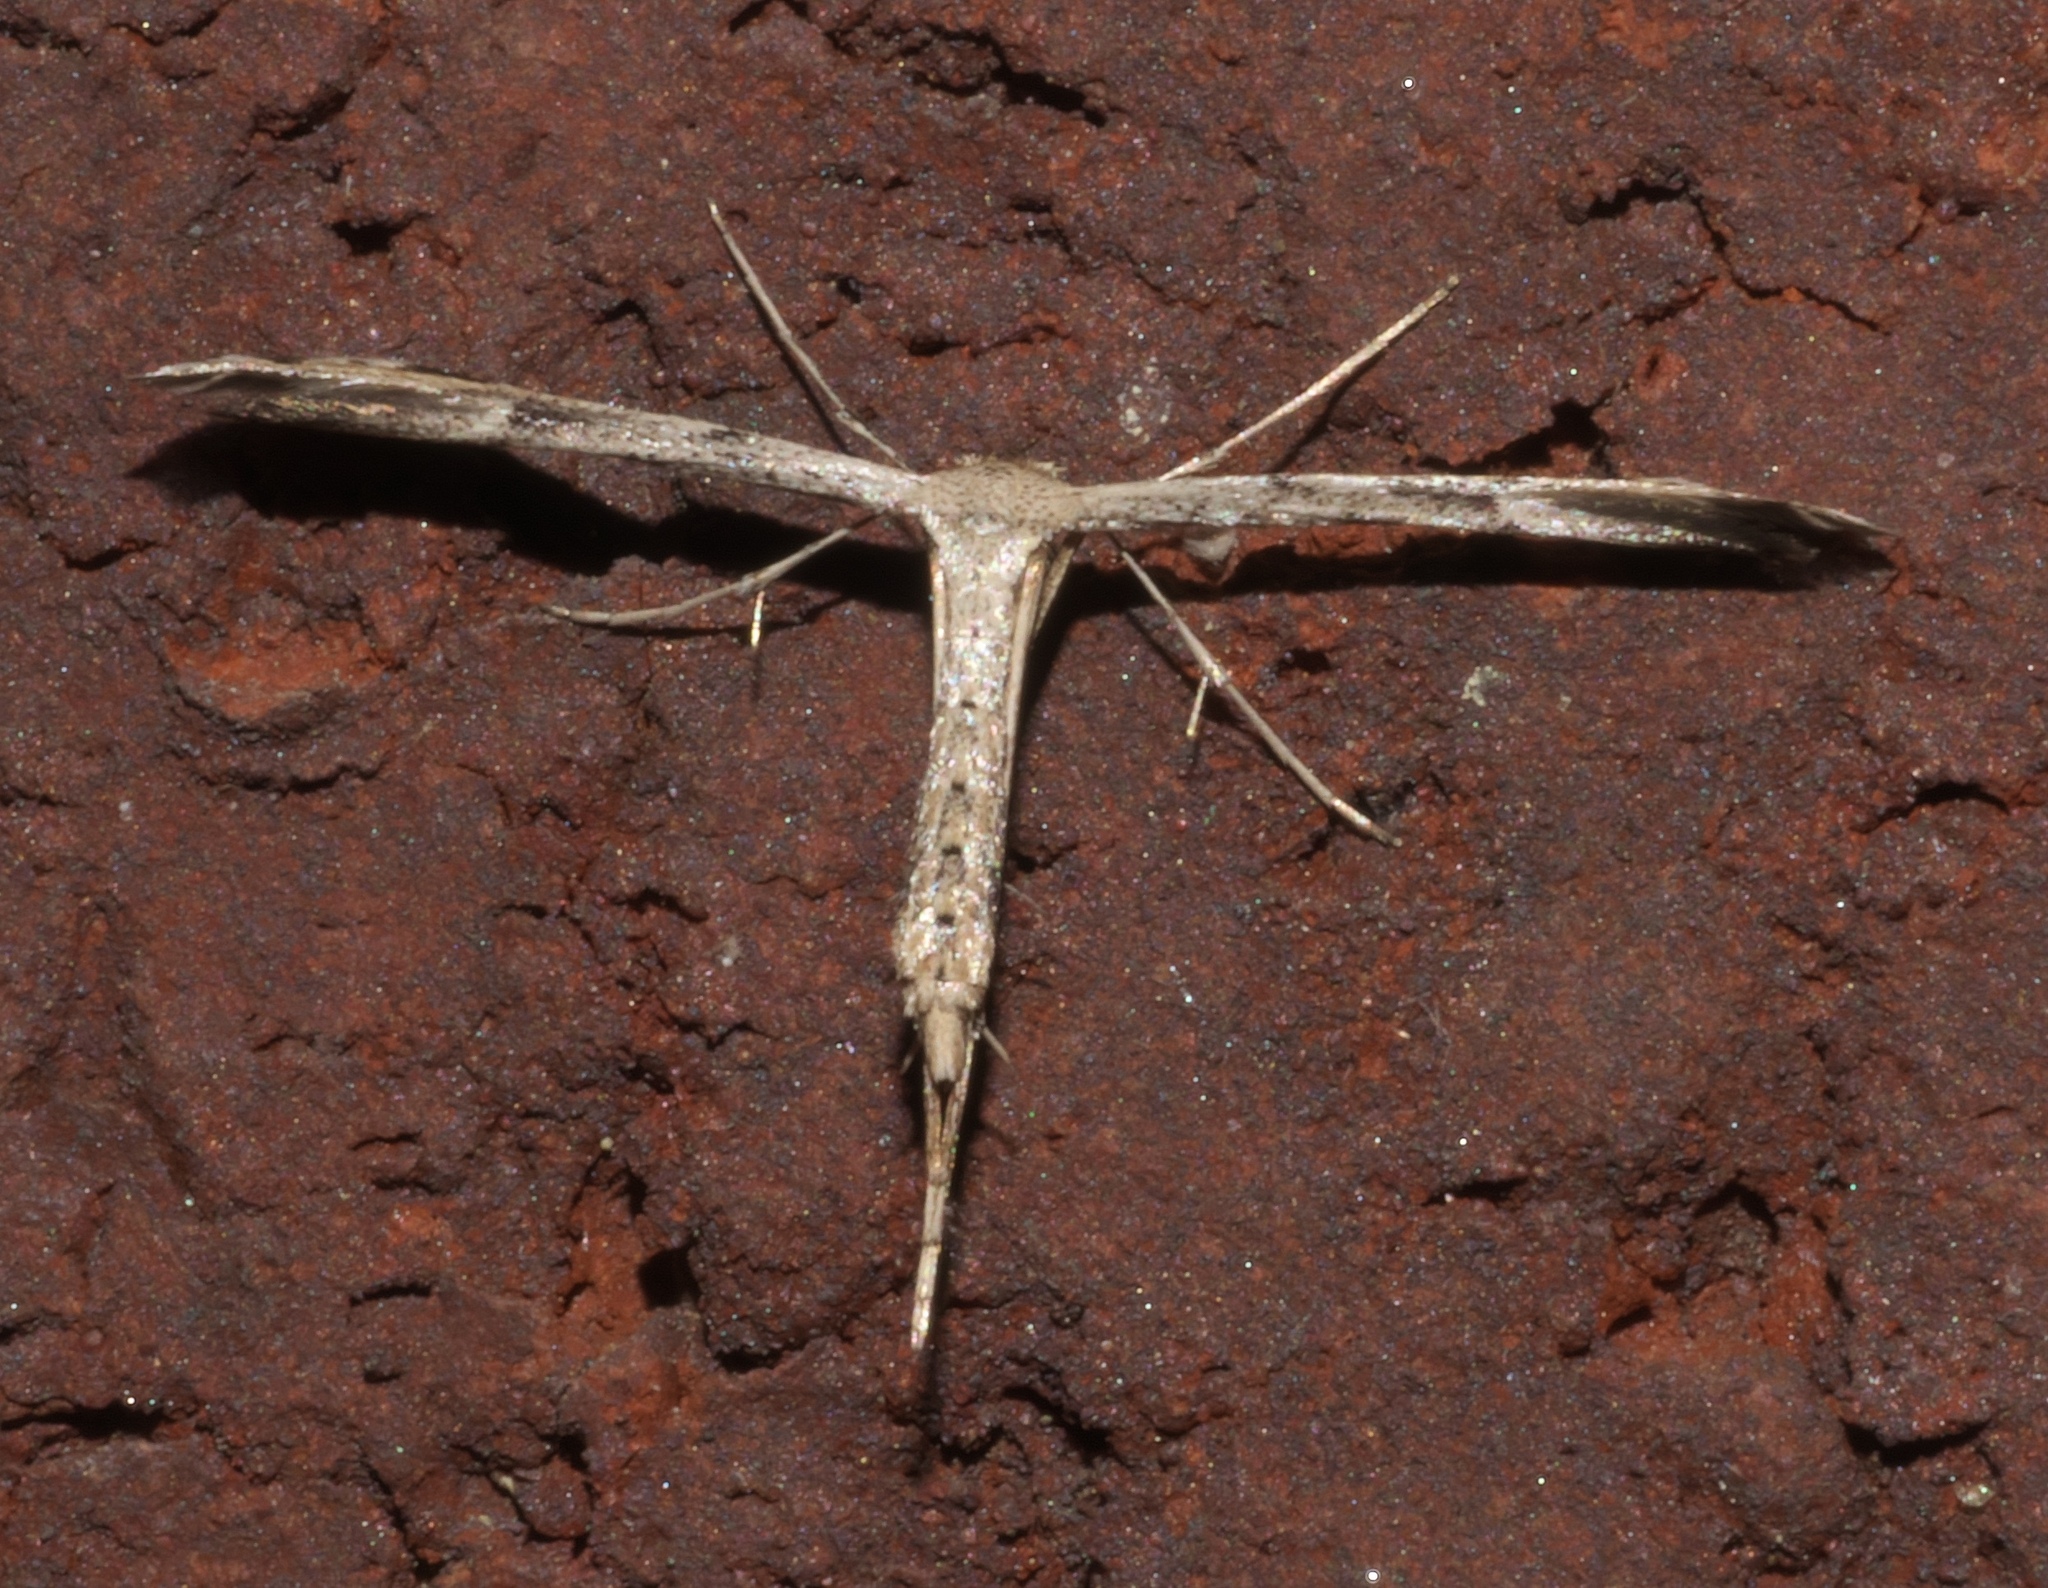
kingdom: Animalia
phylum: Arthropoda
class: Insecta
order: Lepidoptera
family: Pterophoridae
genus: Adaina
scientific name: Adaina ambrosiae
